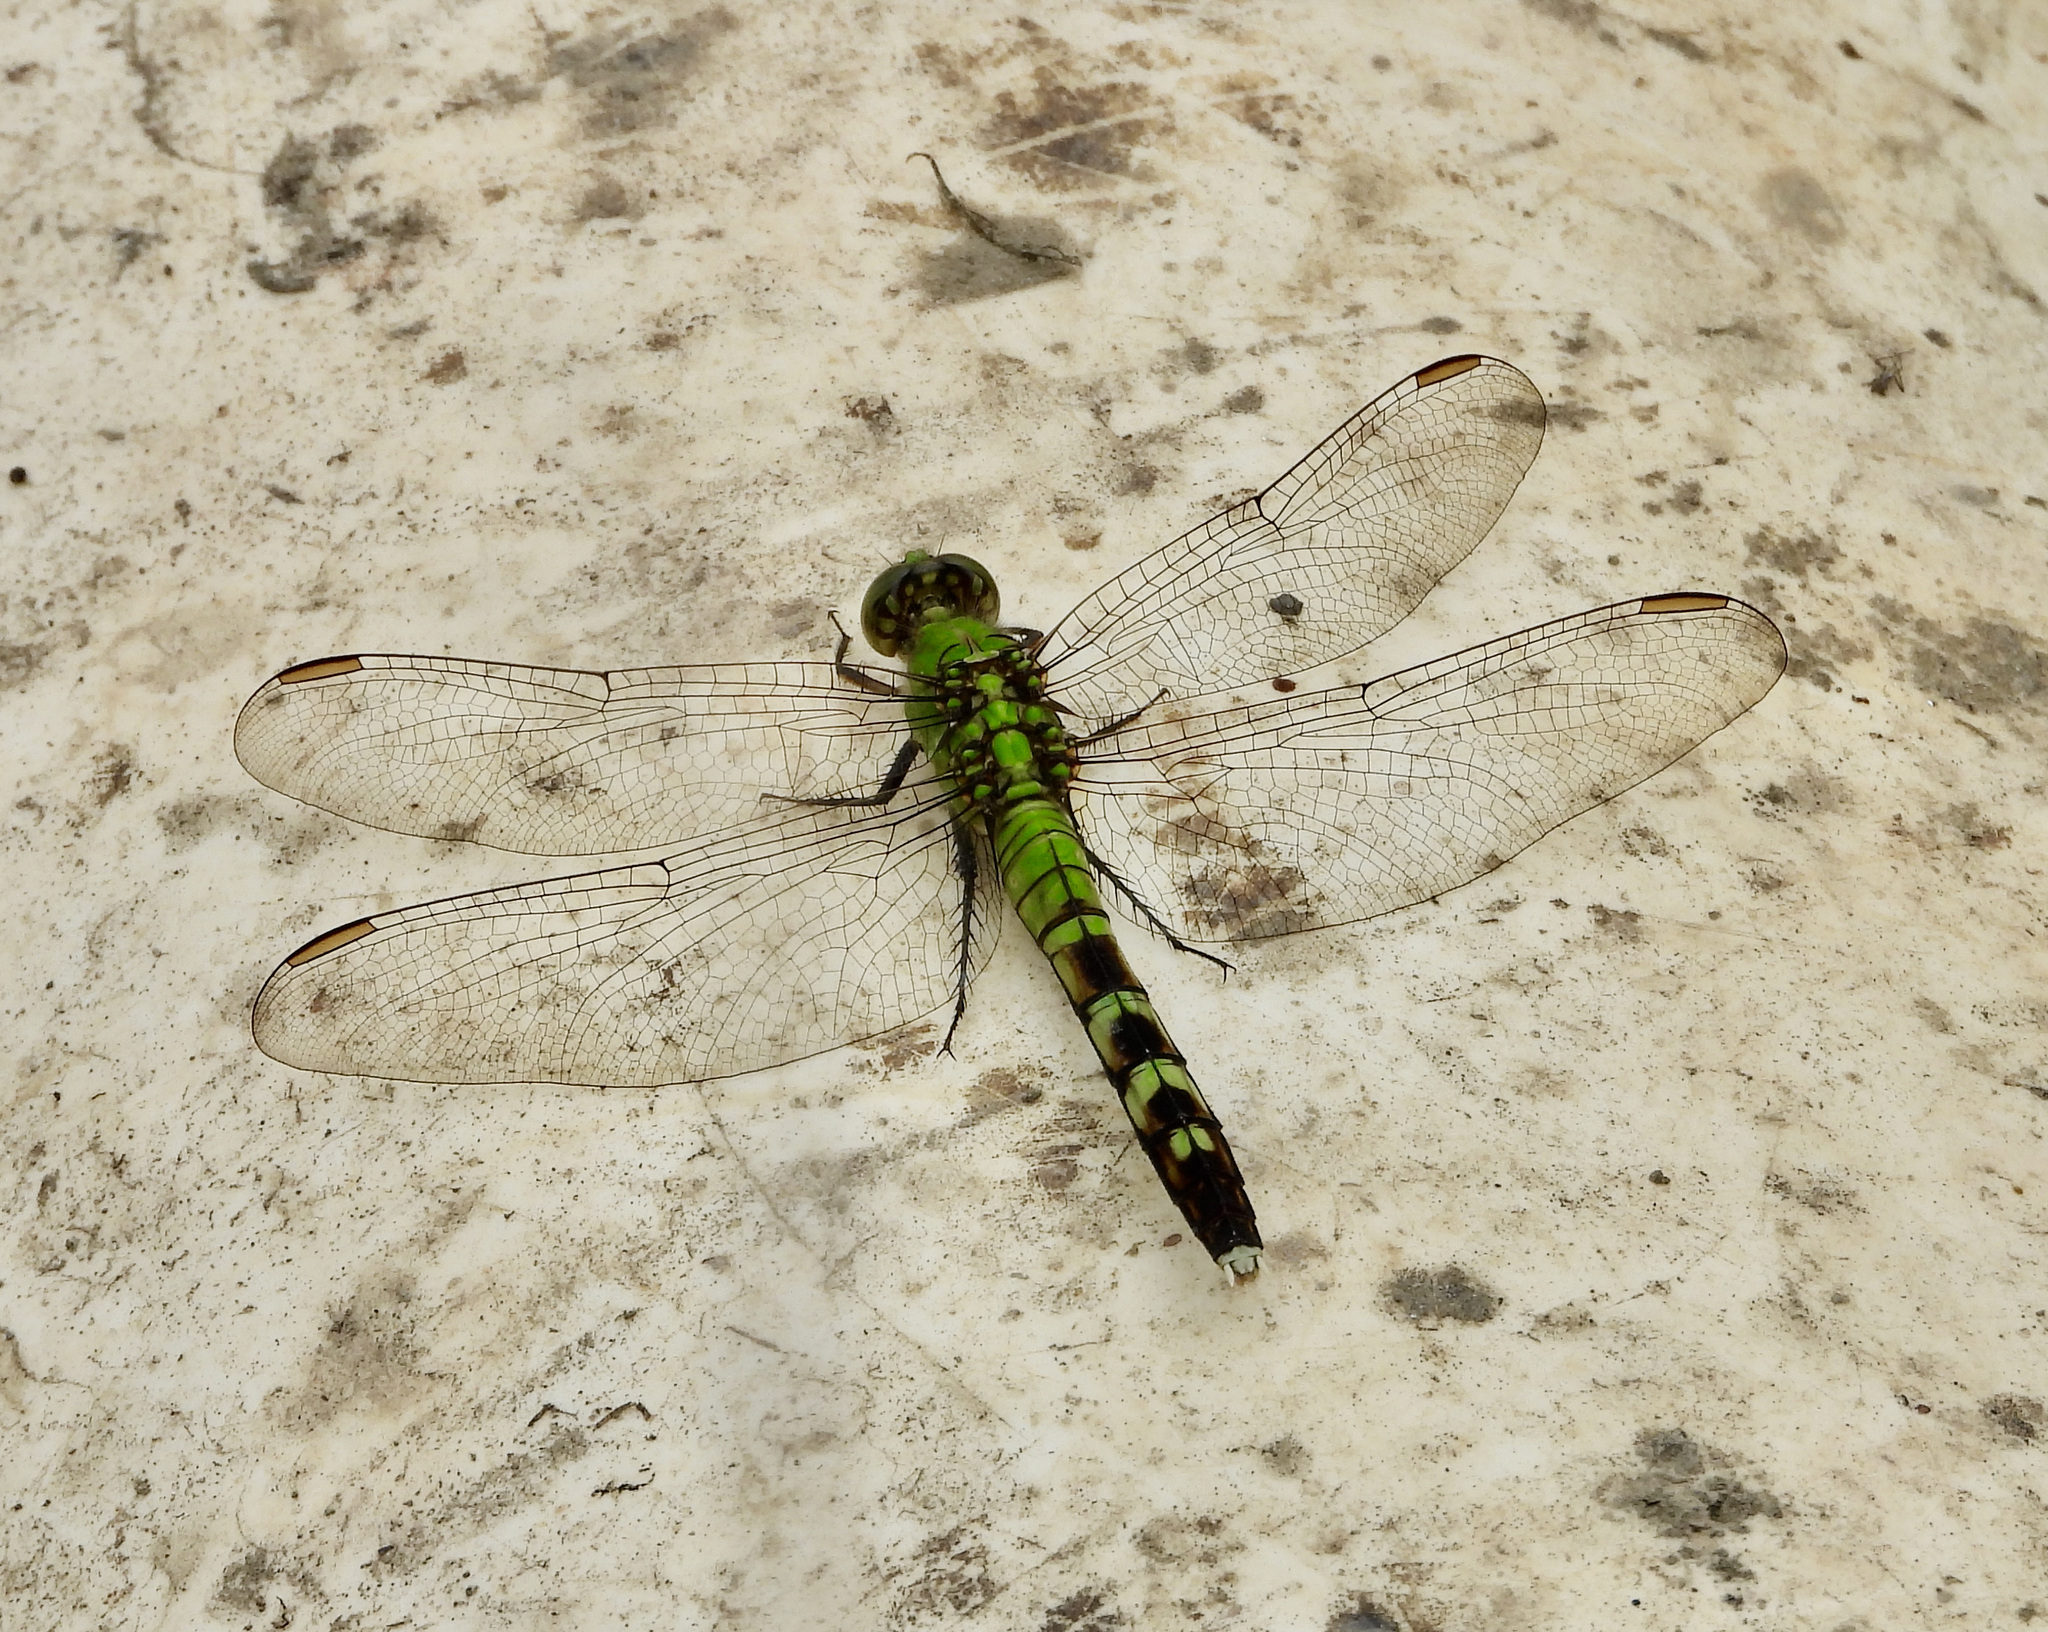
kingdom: Animalia
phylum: Arthropoda
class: Insecta
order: Odonata
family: Libellulidae
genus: Erythemis
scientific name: Erythemis simplicicollis
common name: Eastern pondhawk
